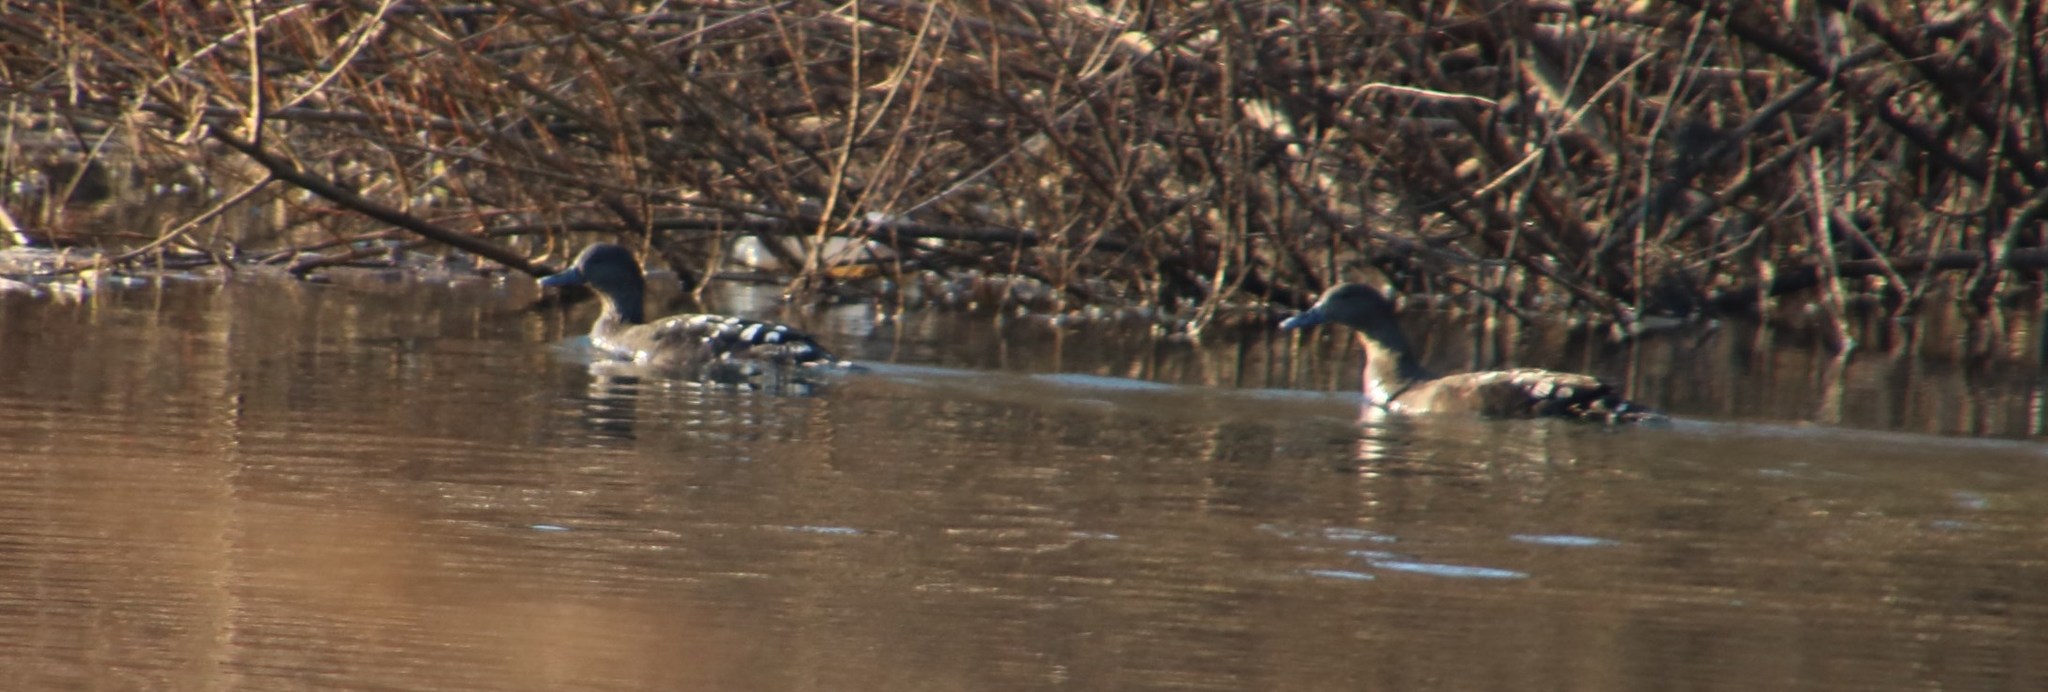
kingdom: Animalia
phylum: Chordata
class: Aves
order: Anseriformes
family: Anatidae
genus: Anas
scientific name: Anas sparsa
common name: African black duck
